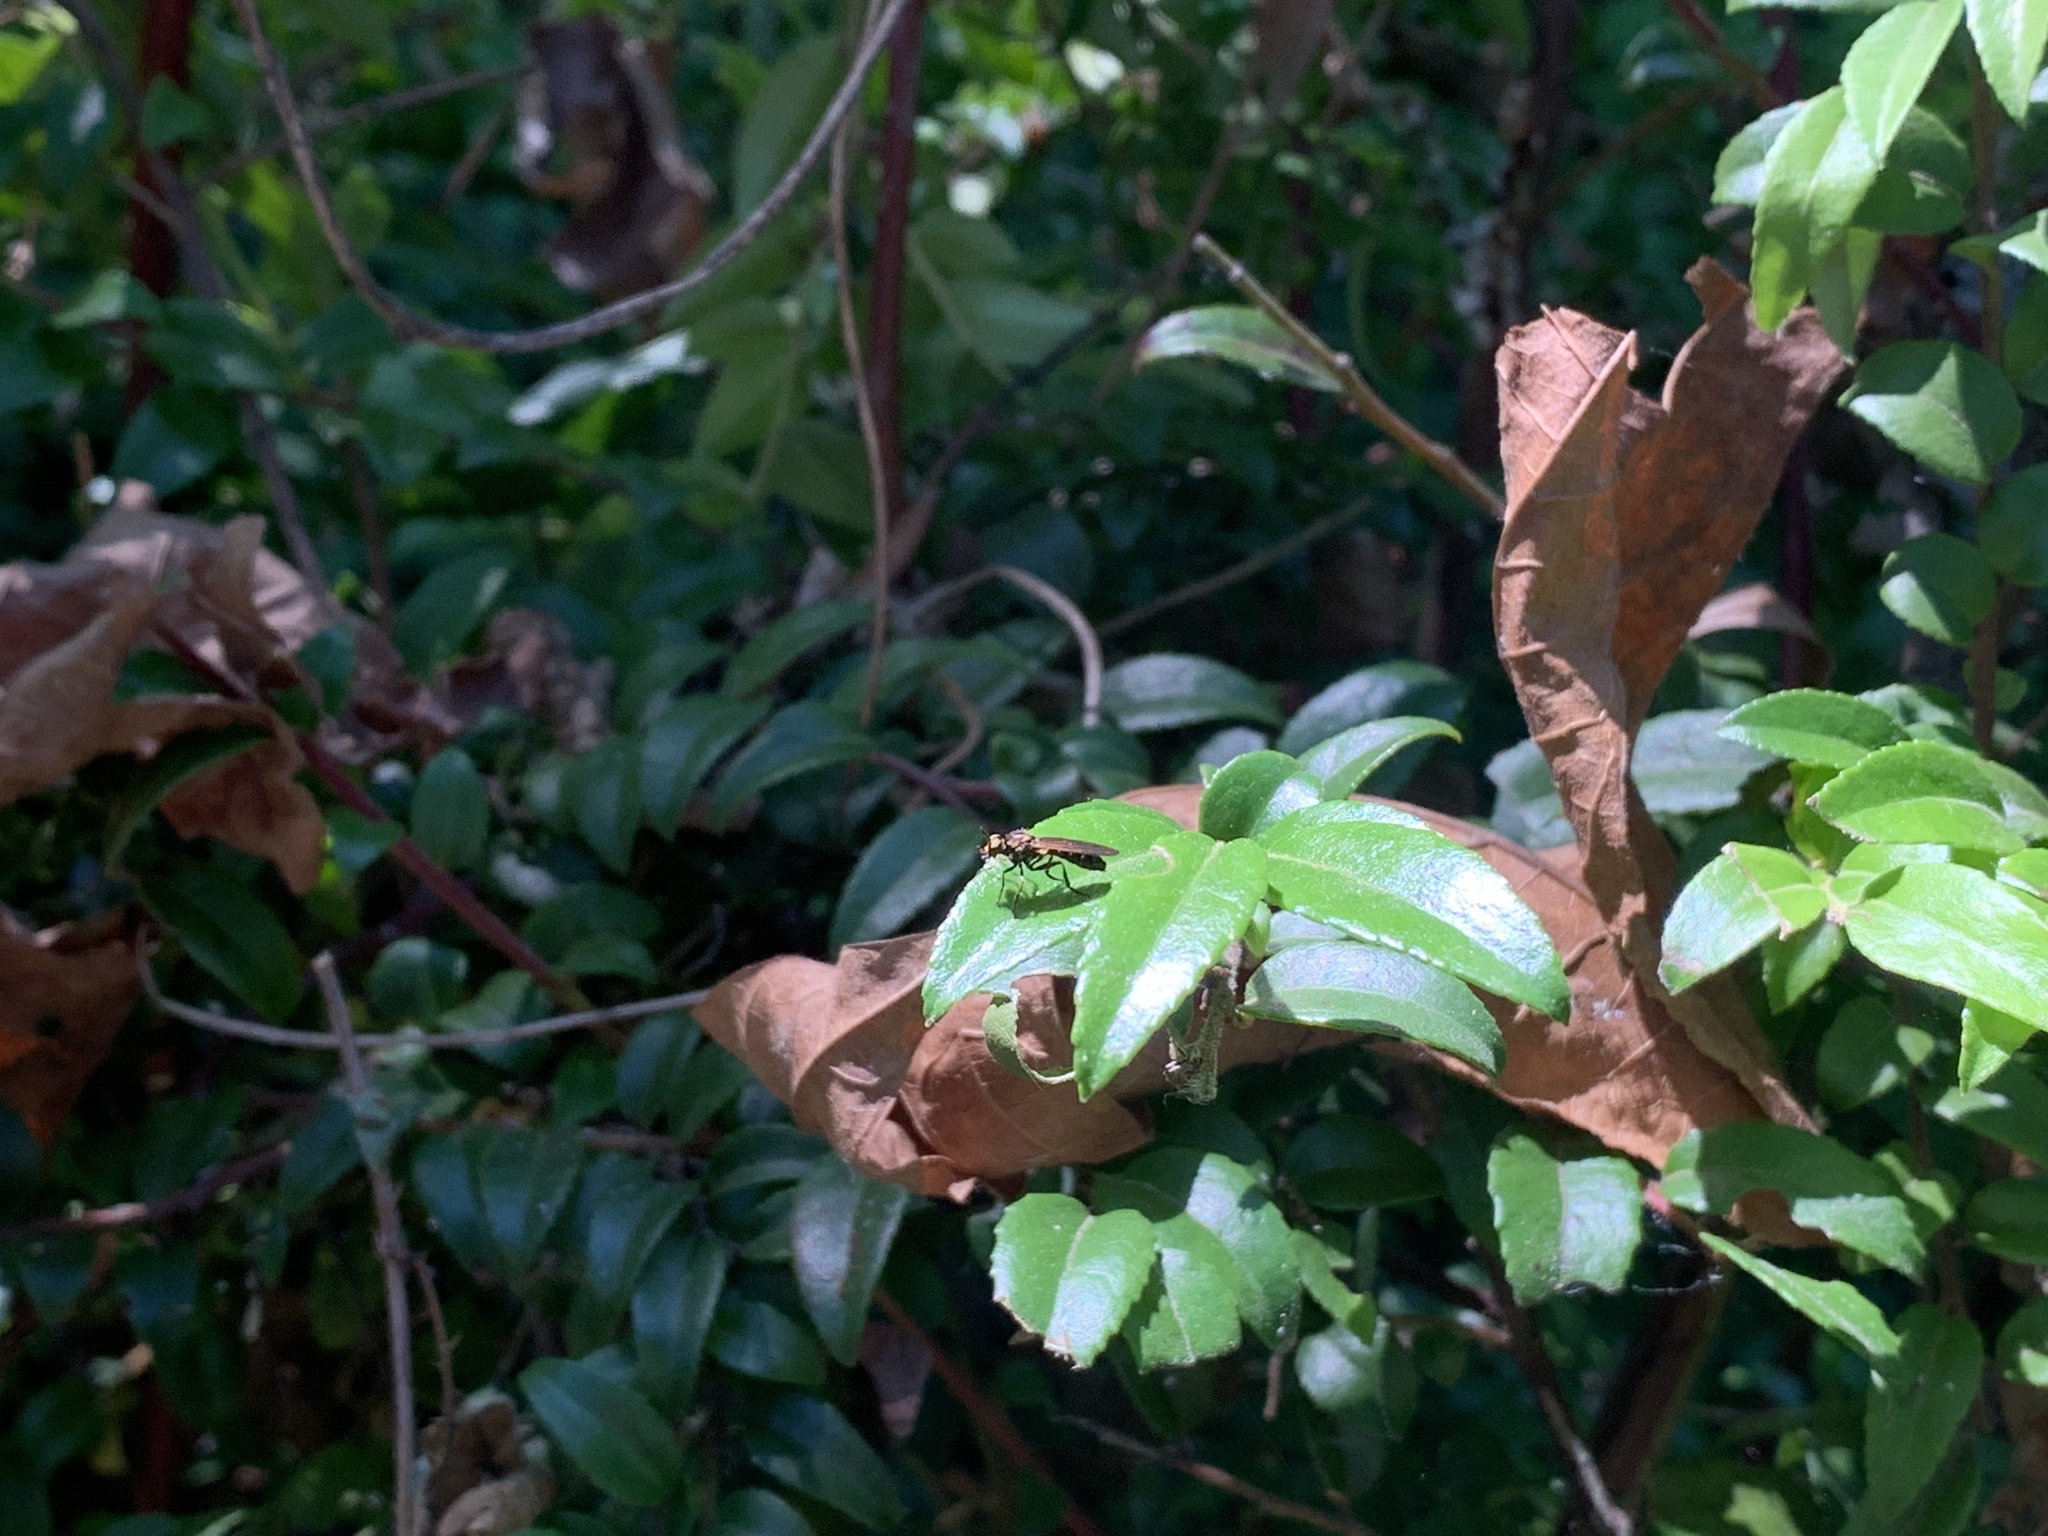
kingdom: Animalia
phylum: Arthropoda
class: Insecta
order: Diptera
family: Asilidae
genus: Eudioctria
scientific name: Eudioctria sackeni
